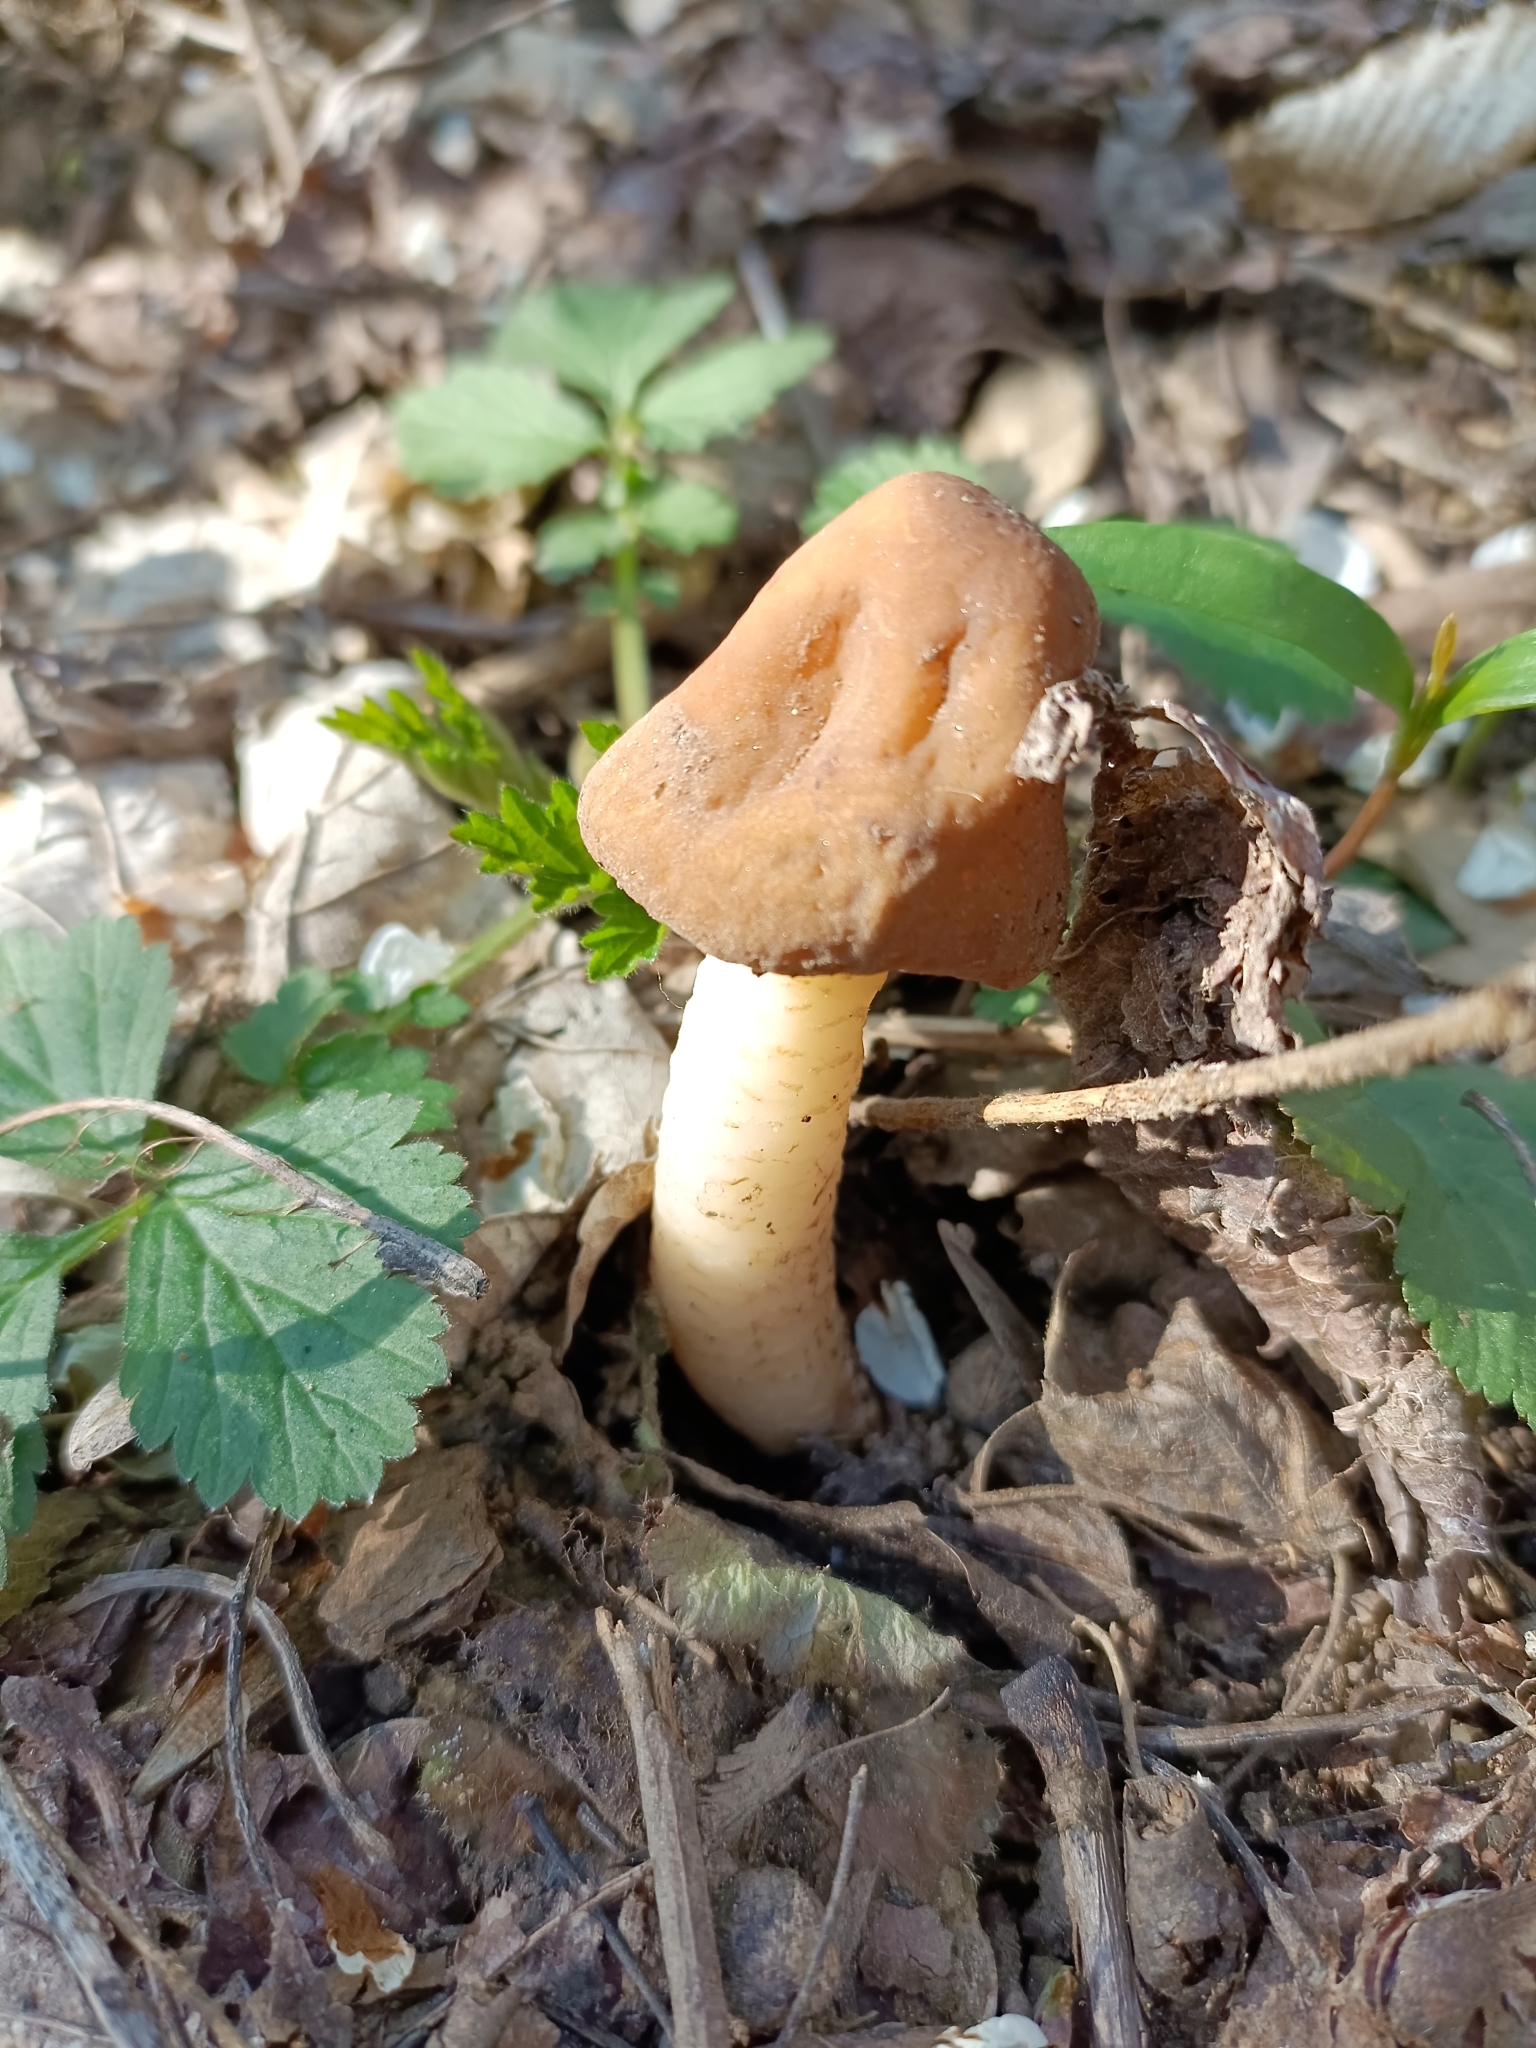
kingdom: Fungi
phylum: Ascomycota
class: Pezizomycetes
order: Pezizales
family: Morchellaceae
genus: Verpa
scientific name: Verpa conica
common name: Thimble morel
